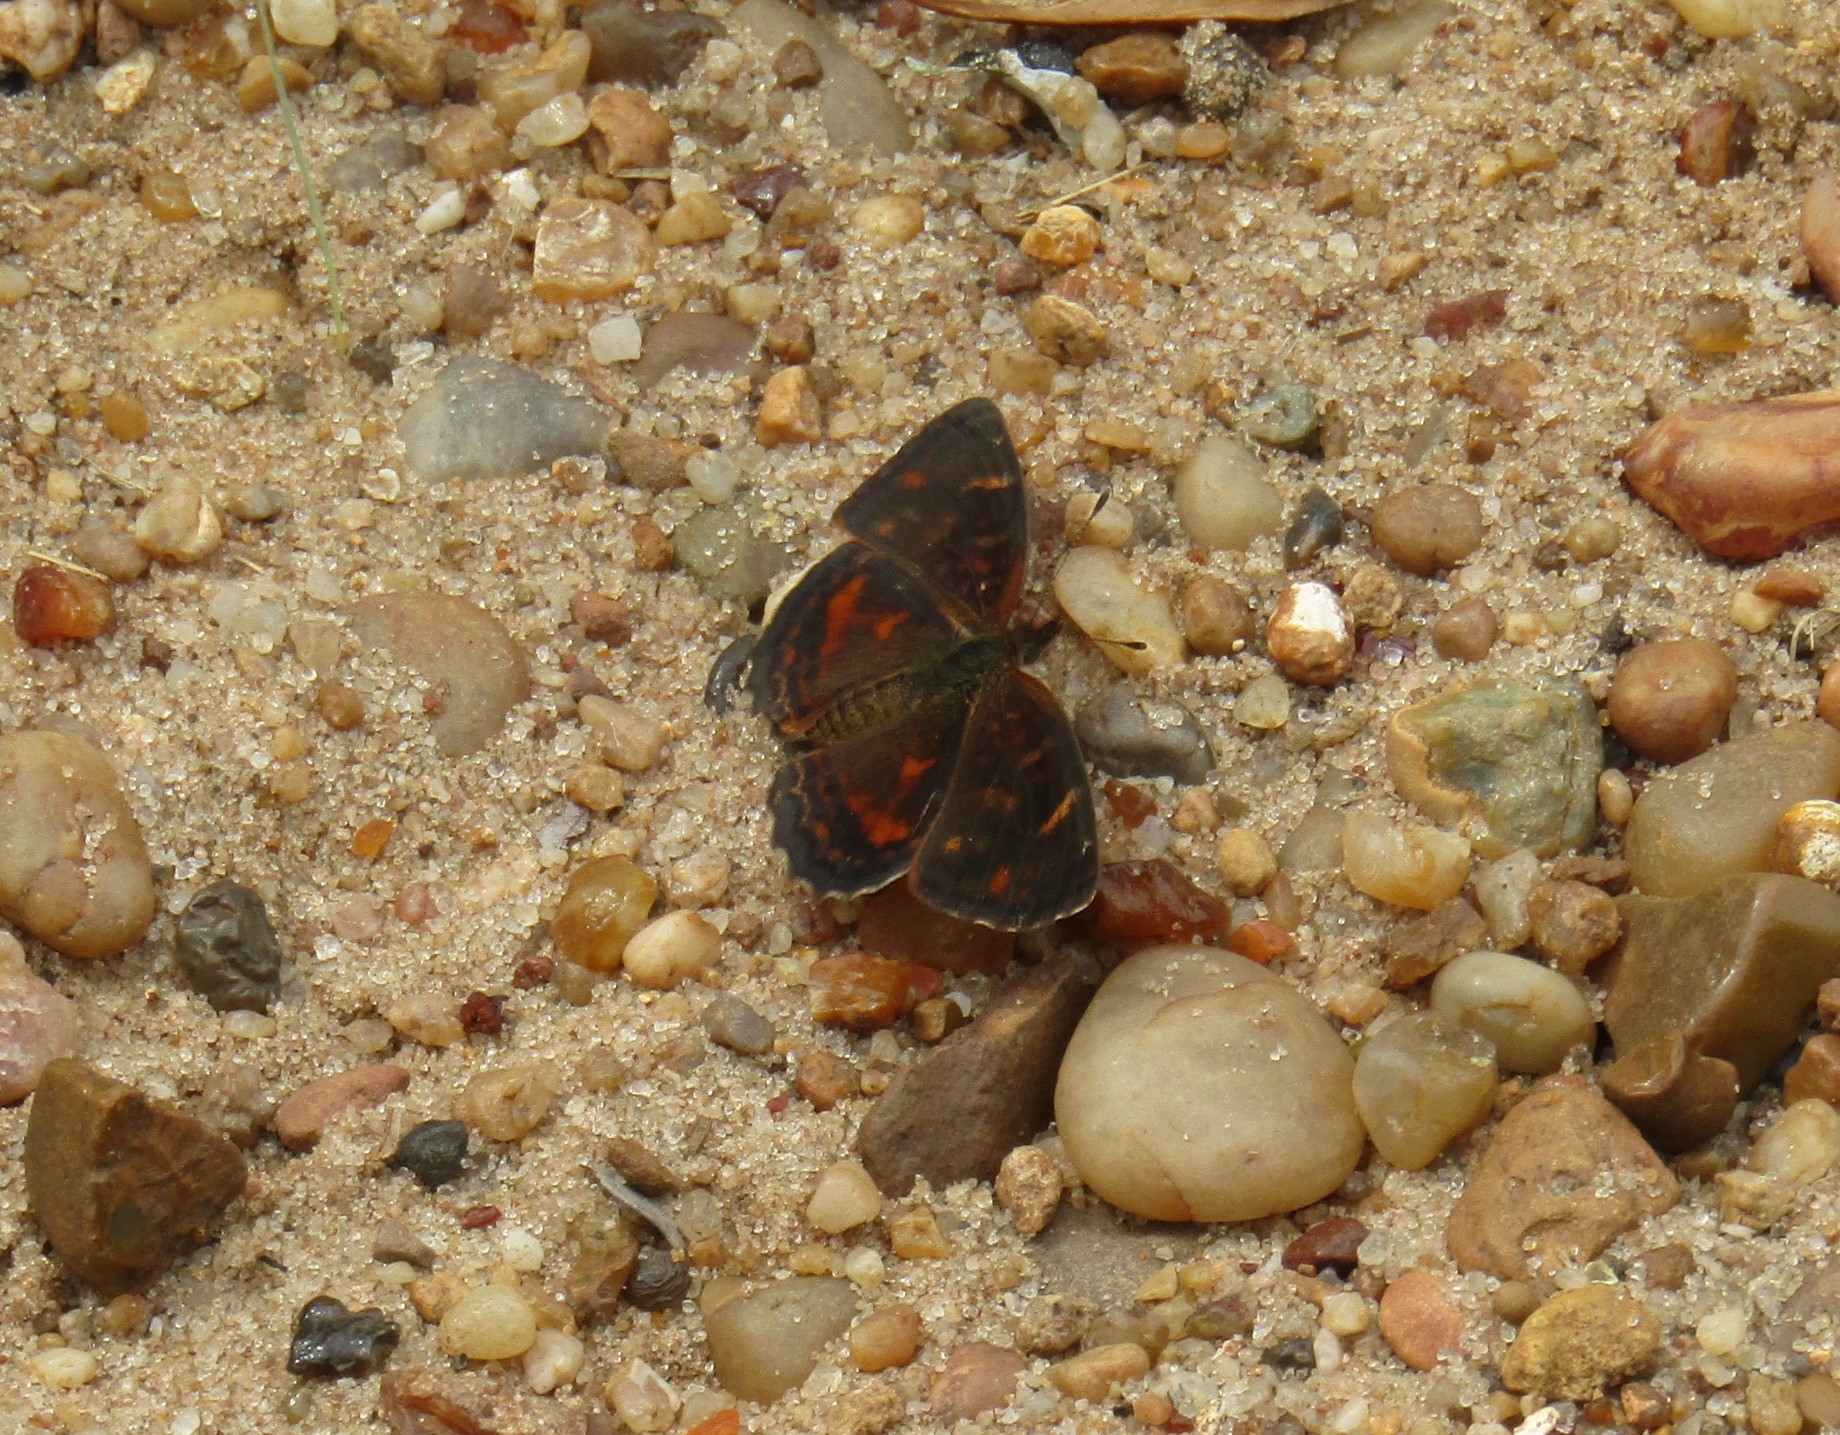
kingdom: Animalia
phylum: Arthropoda
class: Insecta
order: Lepidoptera
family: Nymphalidae
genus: Ortilia
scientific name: Ortilia velica
